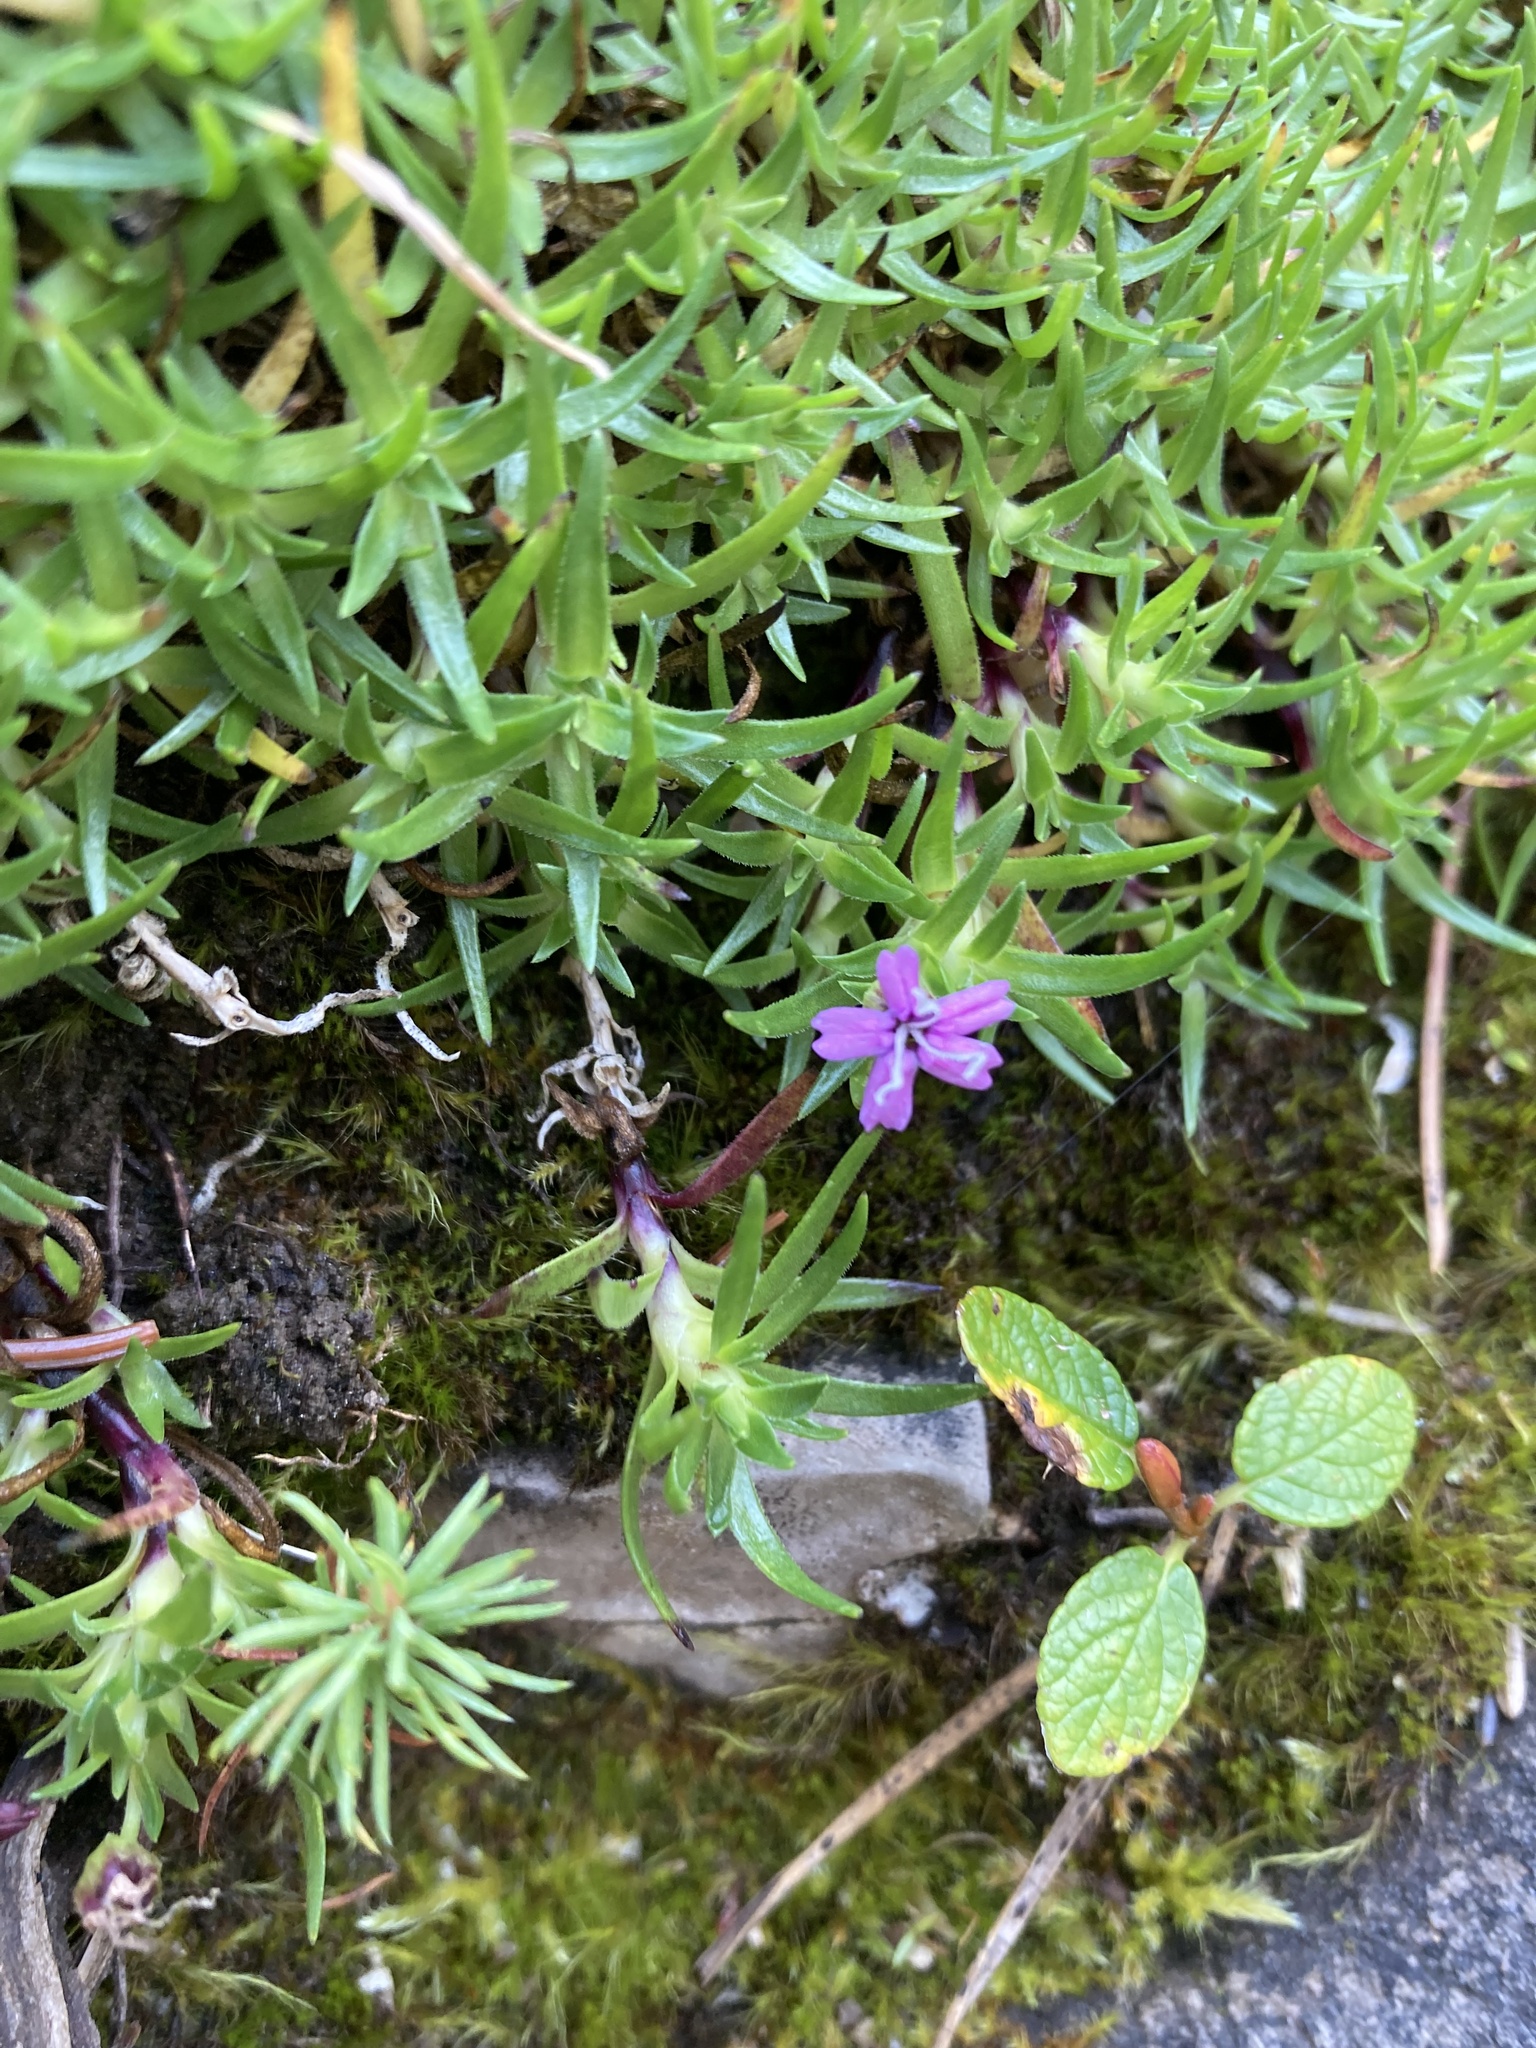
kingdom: Plantae
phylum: Tracheophyta
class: Magnoliopsida
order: Caryophyllales
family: Caryophyllaceae
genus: Silene
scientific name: Silene acaulis
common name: Moss campion
